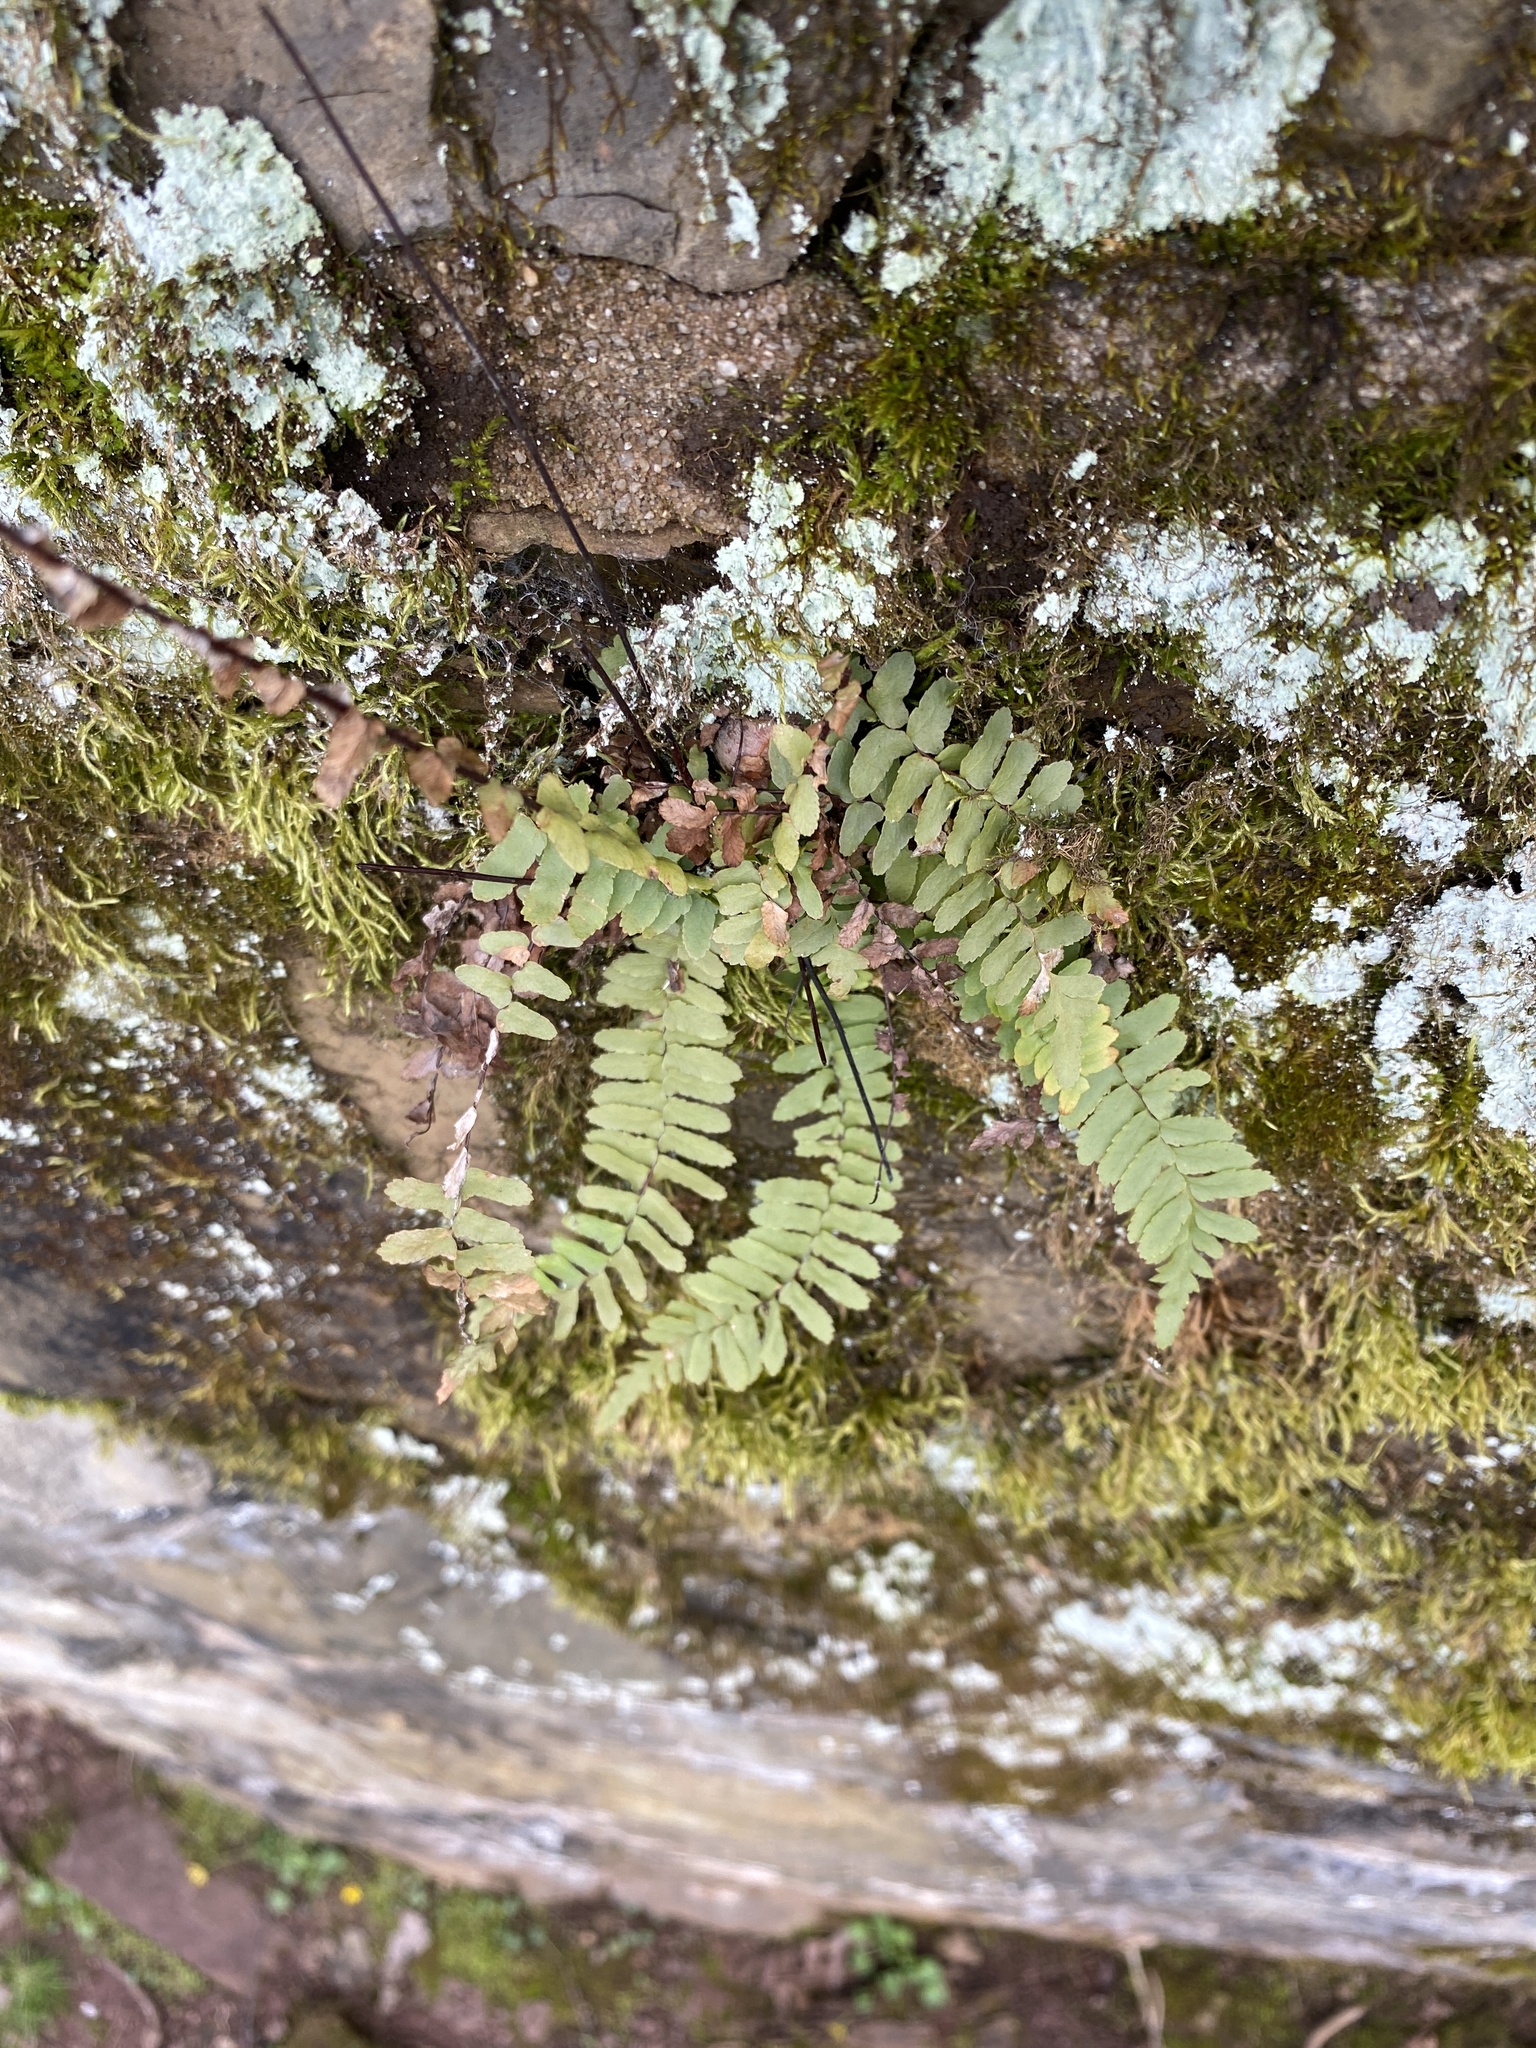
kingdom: Plantae
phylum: Tracheophyta
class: Polypodiopsida
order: Polypodiales
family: Aspleniaceae
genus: Asplenium
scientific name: Asplenium platyneuron
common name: Ebony spleenwort
